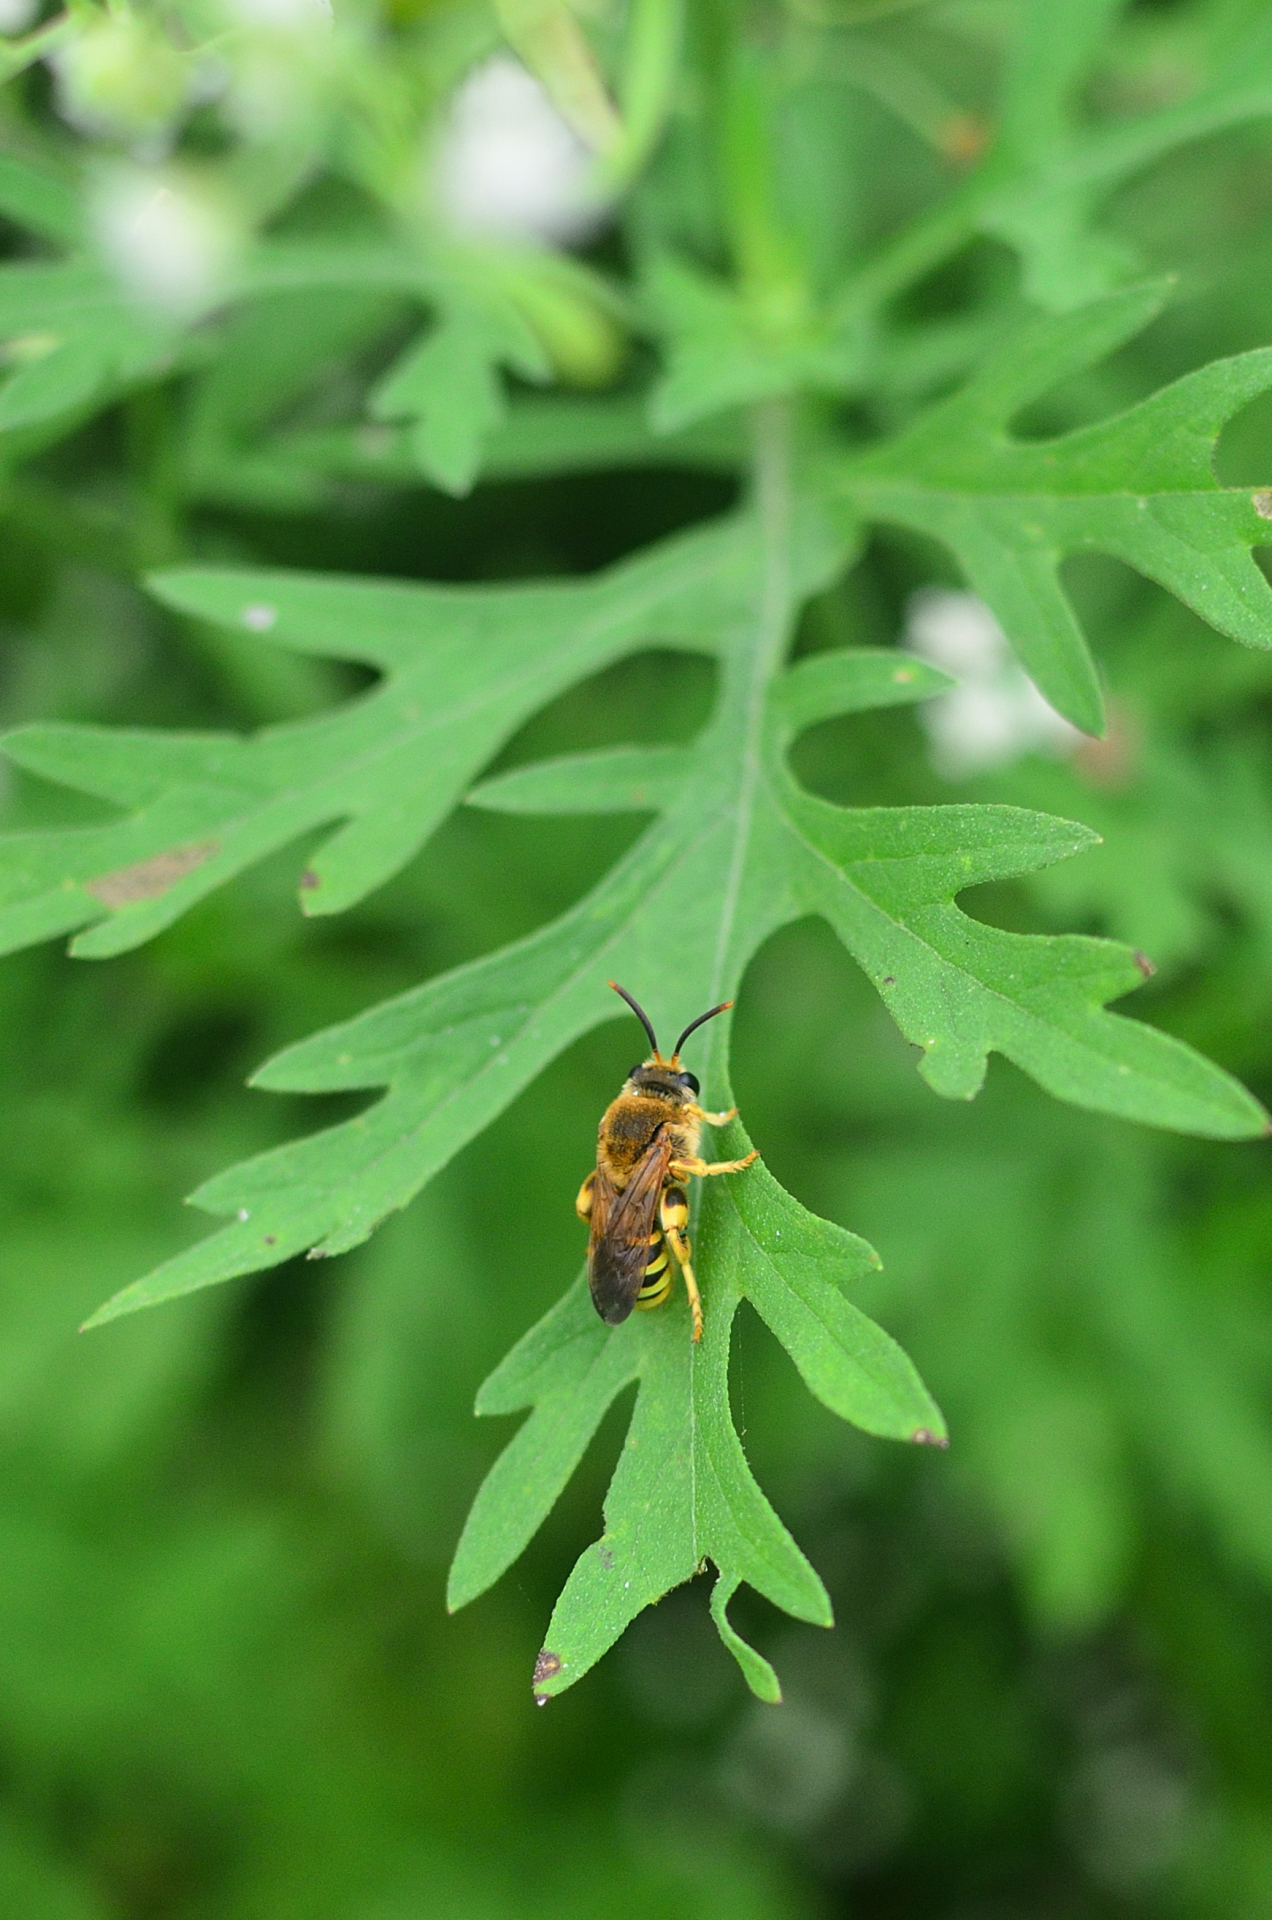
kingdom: Animalia
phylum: Arthropoda
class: Insecta
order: Hymenoptera
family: Halictidae
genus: Nomia
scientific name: Nomia crassipes
